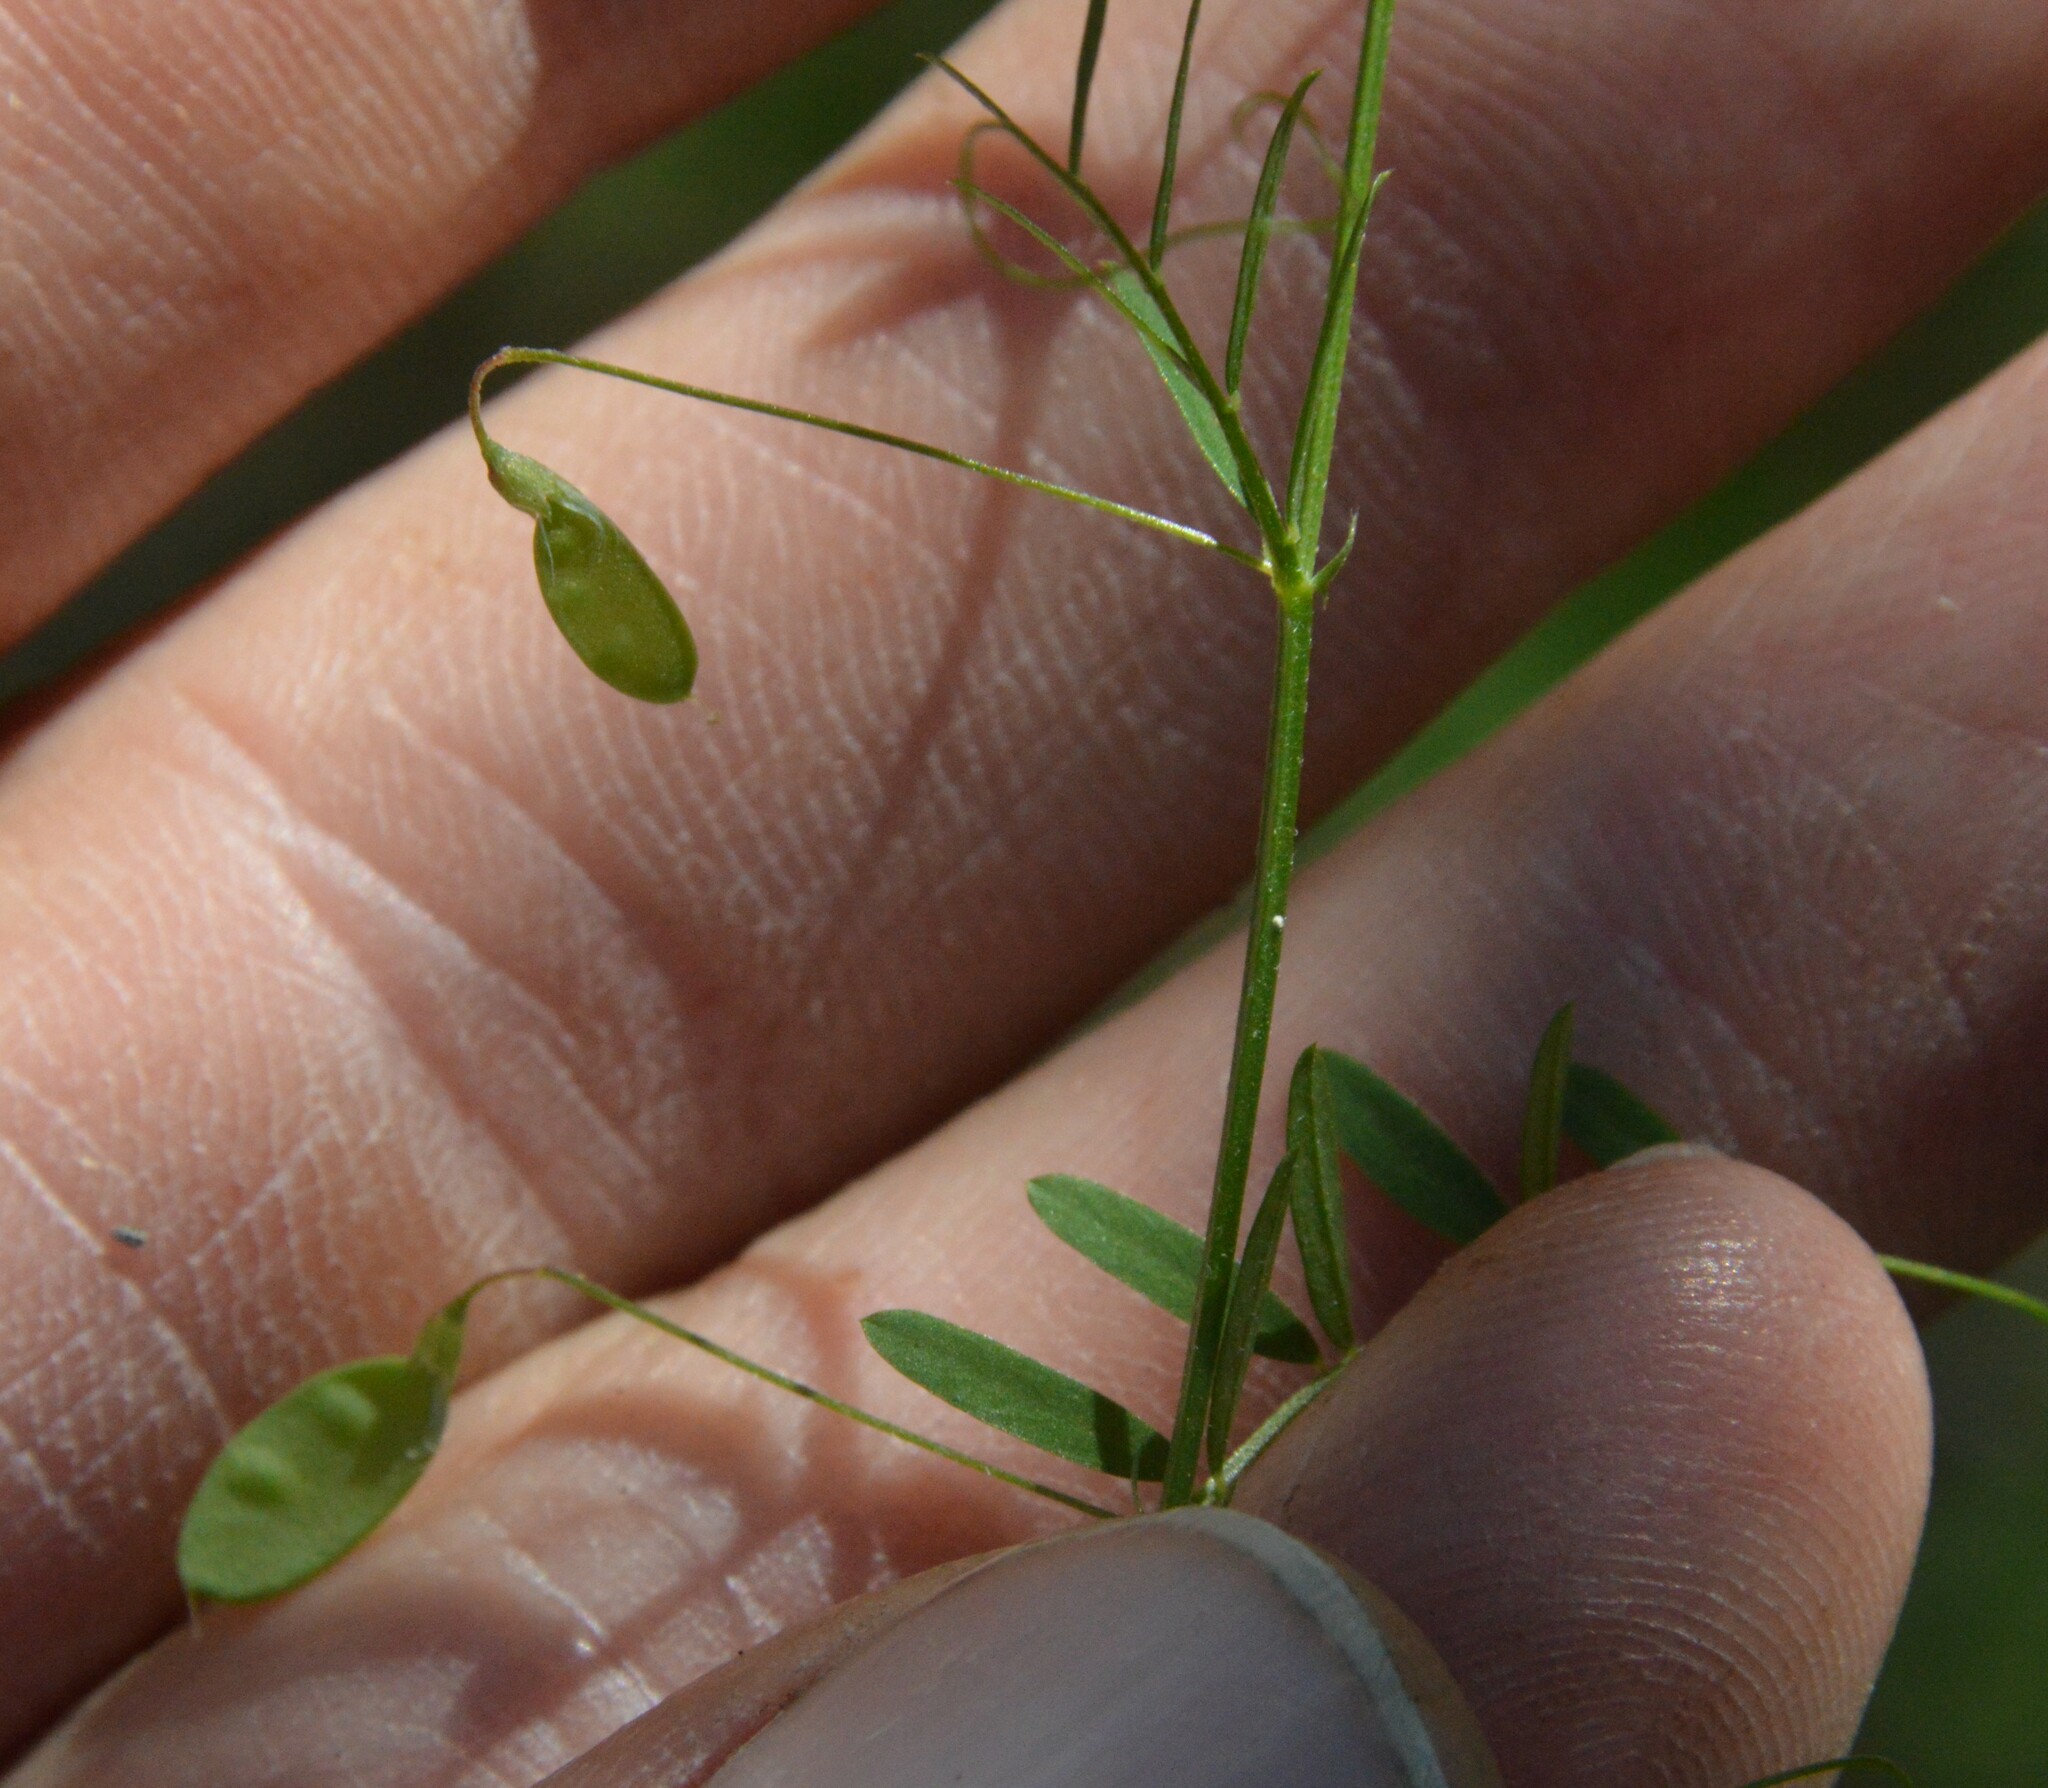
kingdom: Plantae
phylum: Tracheophyta
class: Magnoliopsida
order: Fabales
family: Fabaceae
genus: Vicia
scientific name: Vicia tetrasperma
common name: Smooth tare
